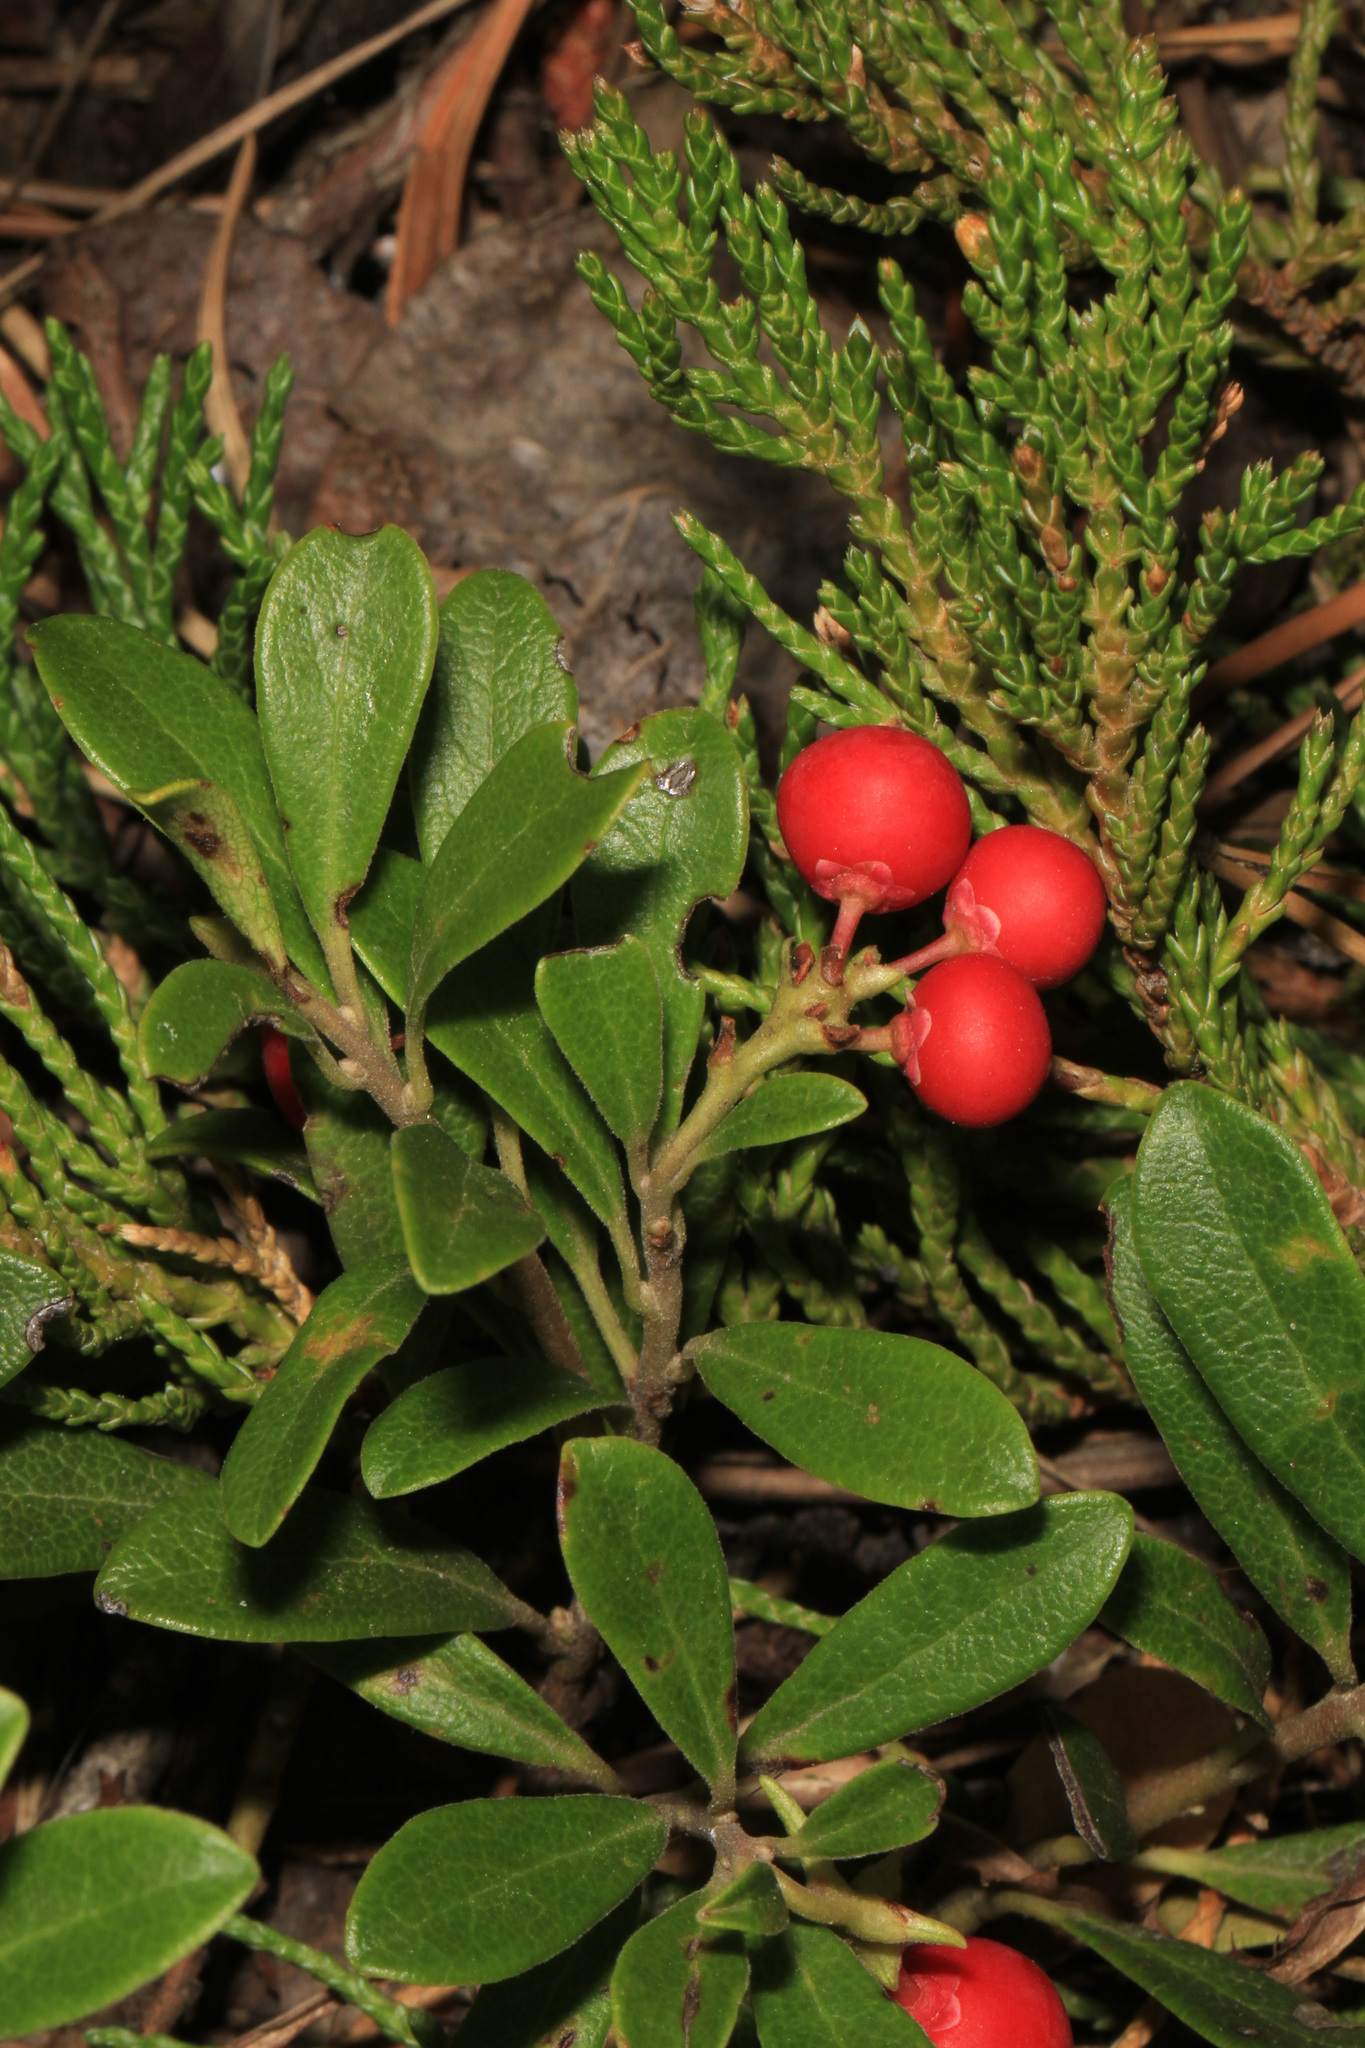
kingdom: Plantae
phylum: Tracheophyta
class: Magnoliopsida
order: Ericales
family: Ericaceae
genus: Arctostaphylos
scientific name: Arctostaphylos uva-ursi
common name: Bearberry
